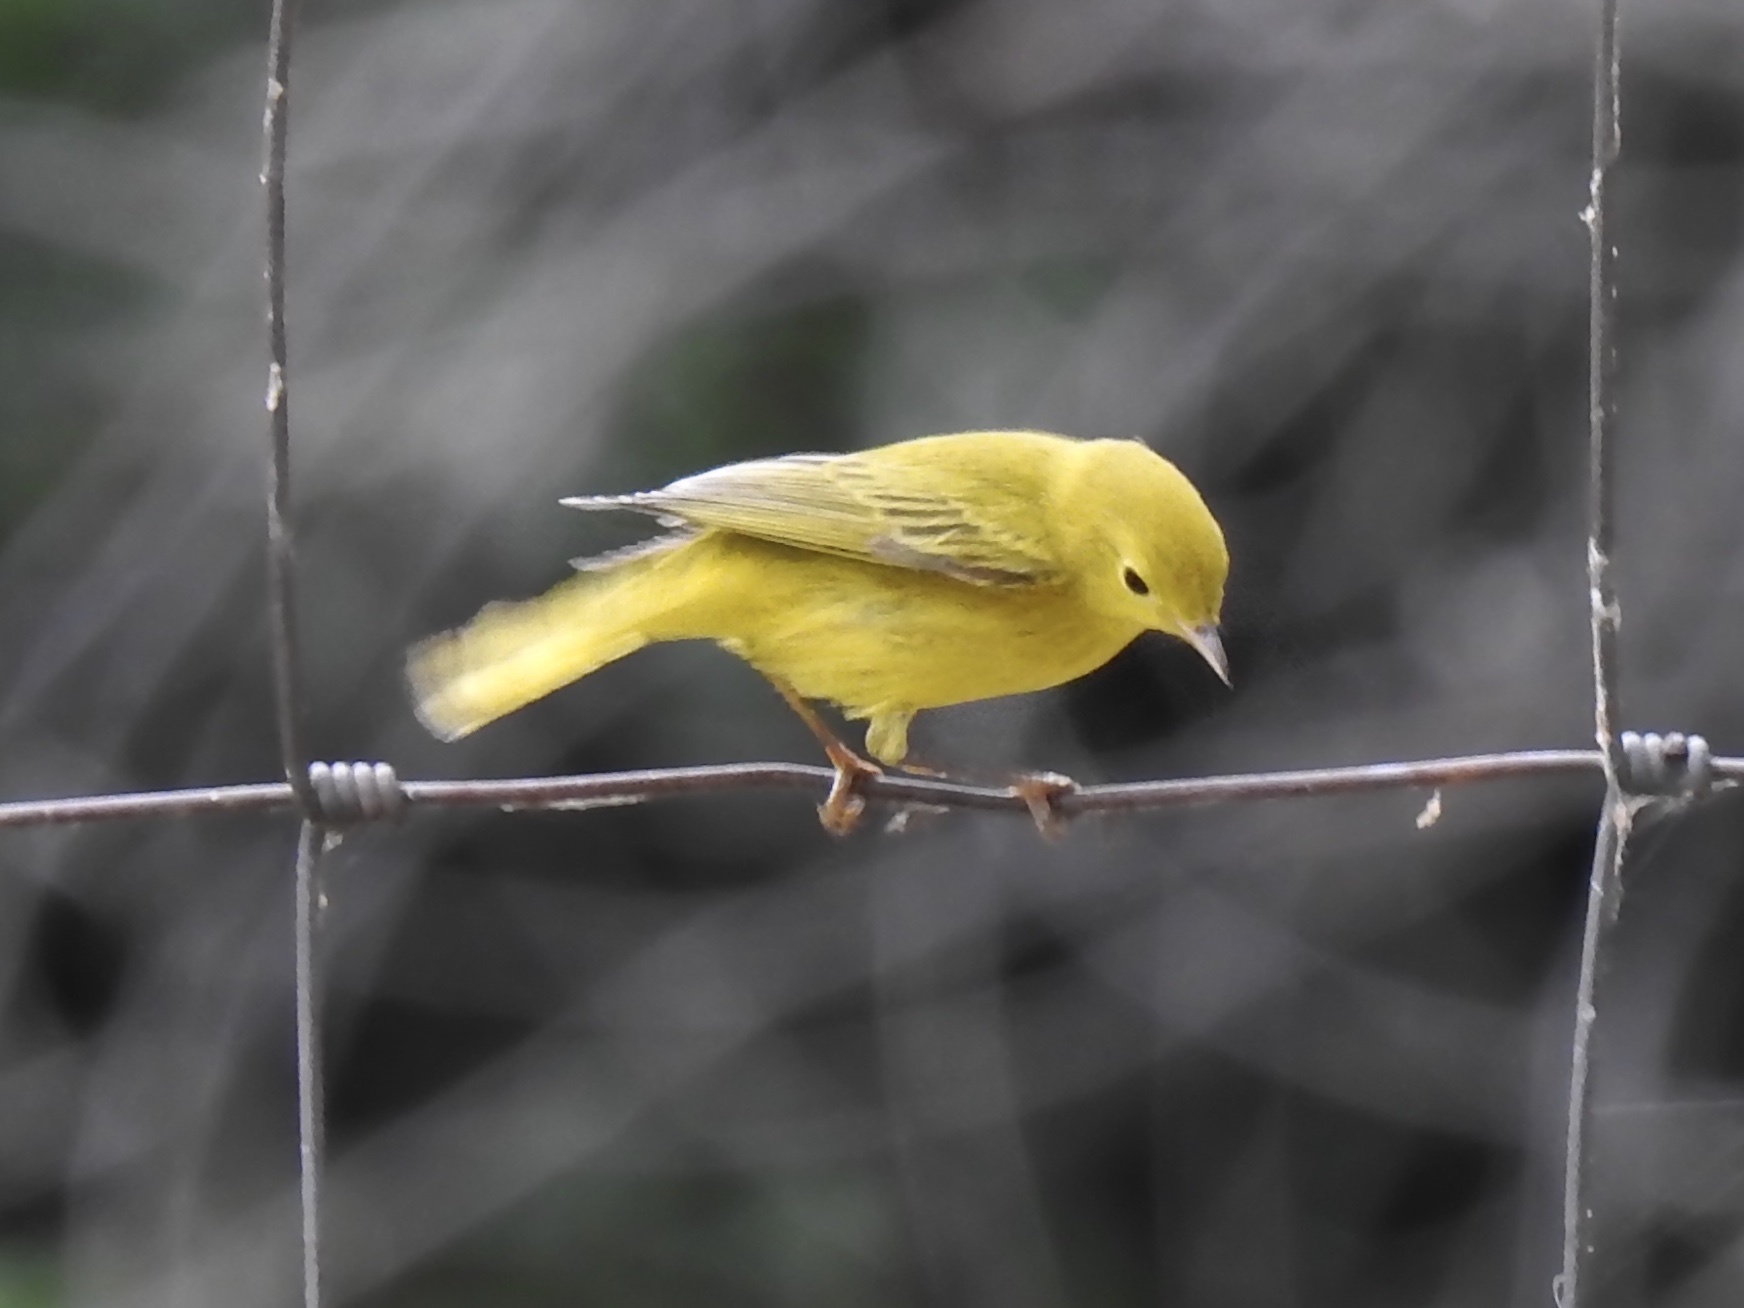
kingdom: Animalia
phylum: Chordata
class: Aves
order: Passeriformes
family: Parulidae
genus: Setophaga
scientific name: Setophaga petechia
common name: Yellow warbler
